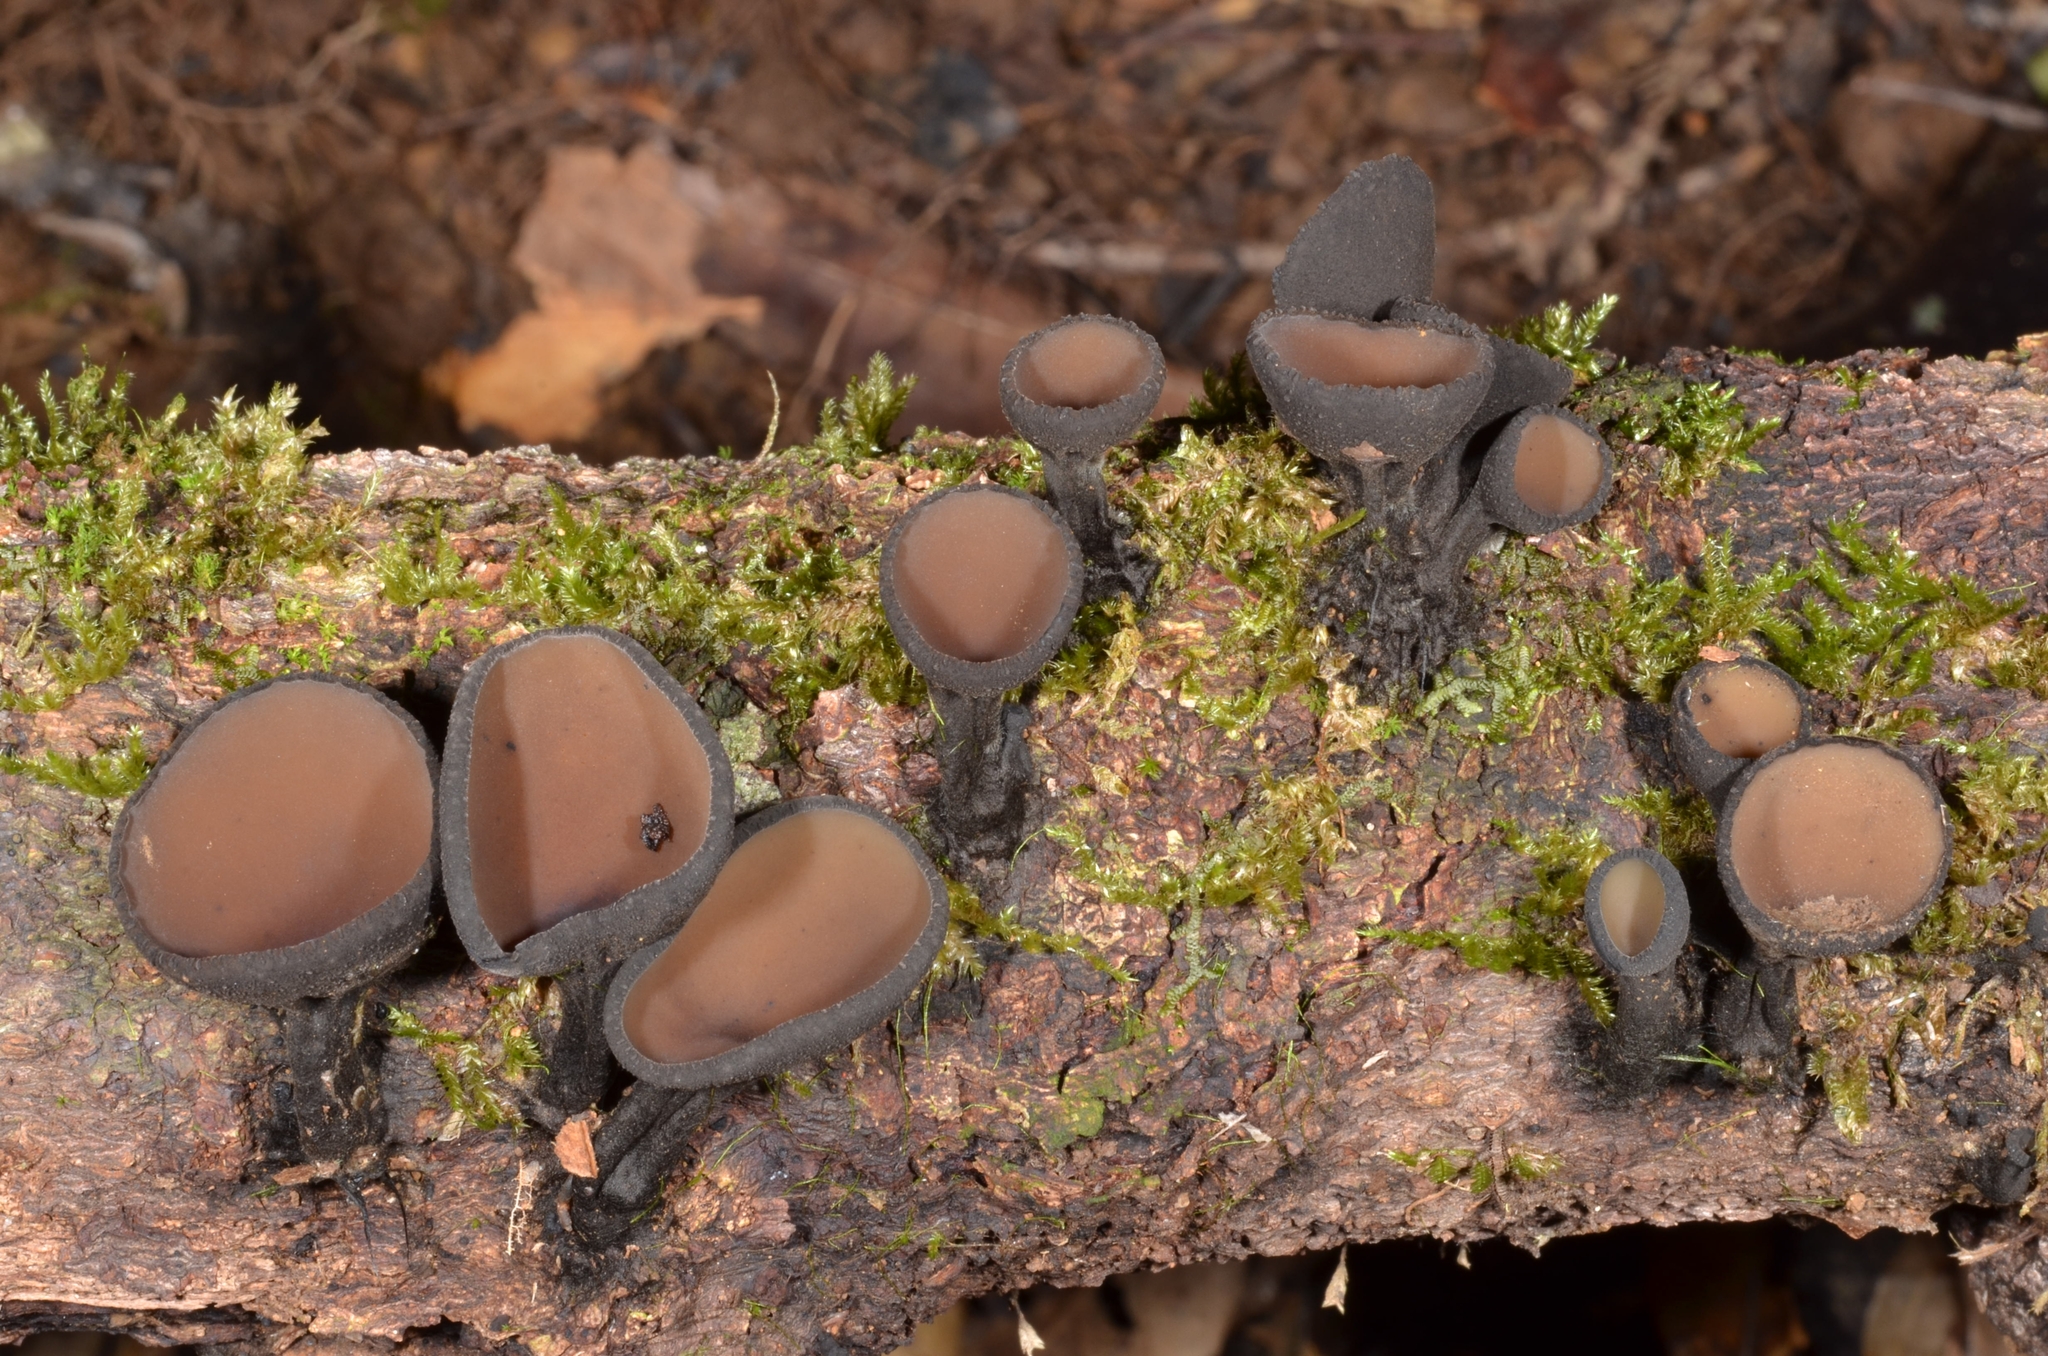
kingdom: Fungi
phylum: Ascomycota
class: Pezizomycetes
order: Pezizales
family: Sarcosomataceae
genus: Plectania
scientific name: Plectania campylospora
